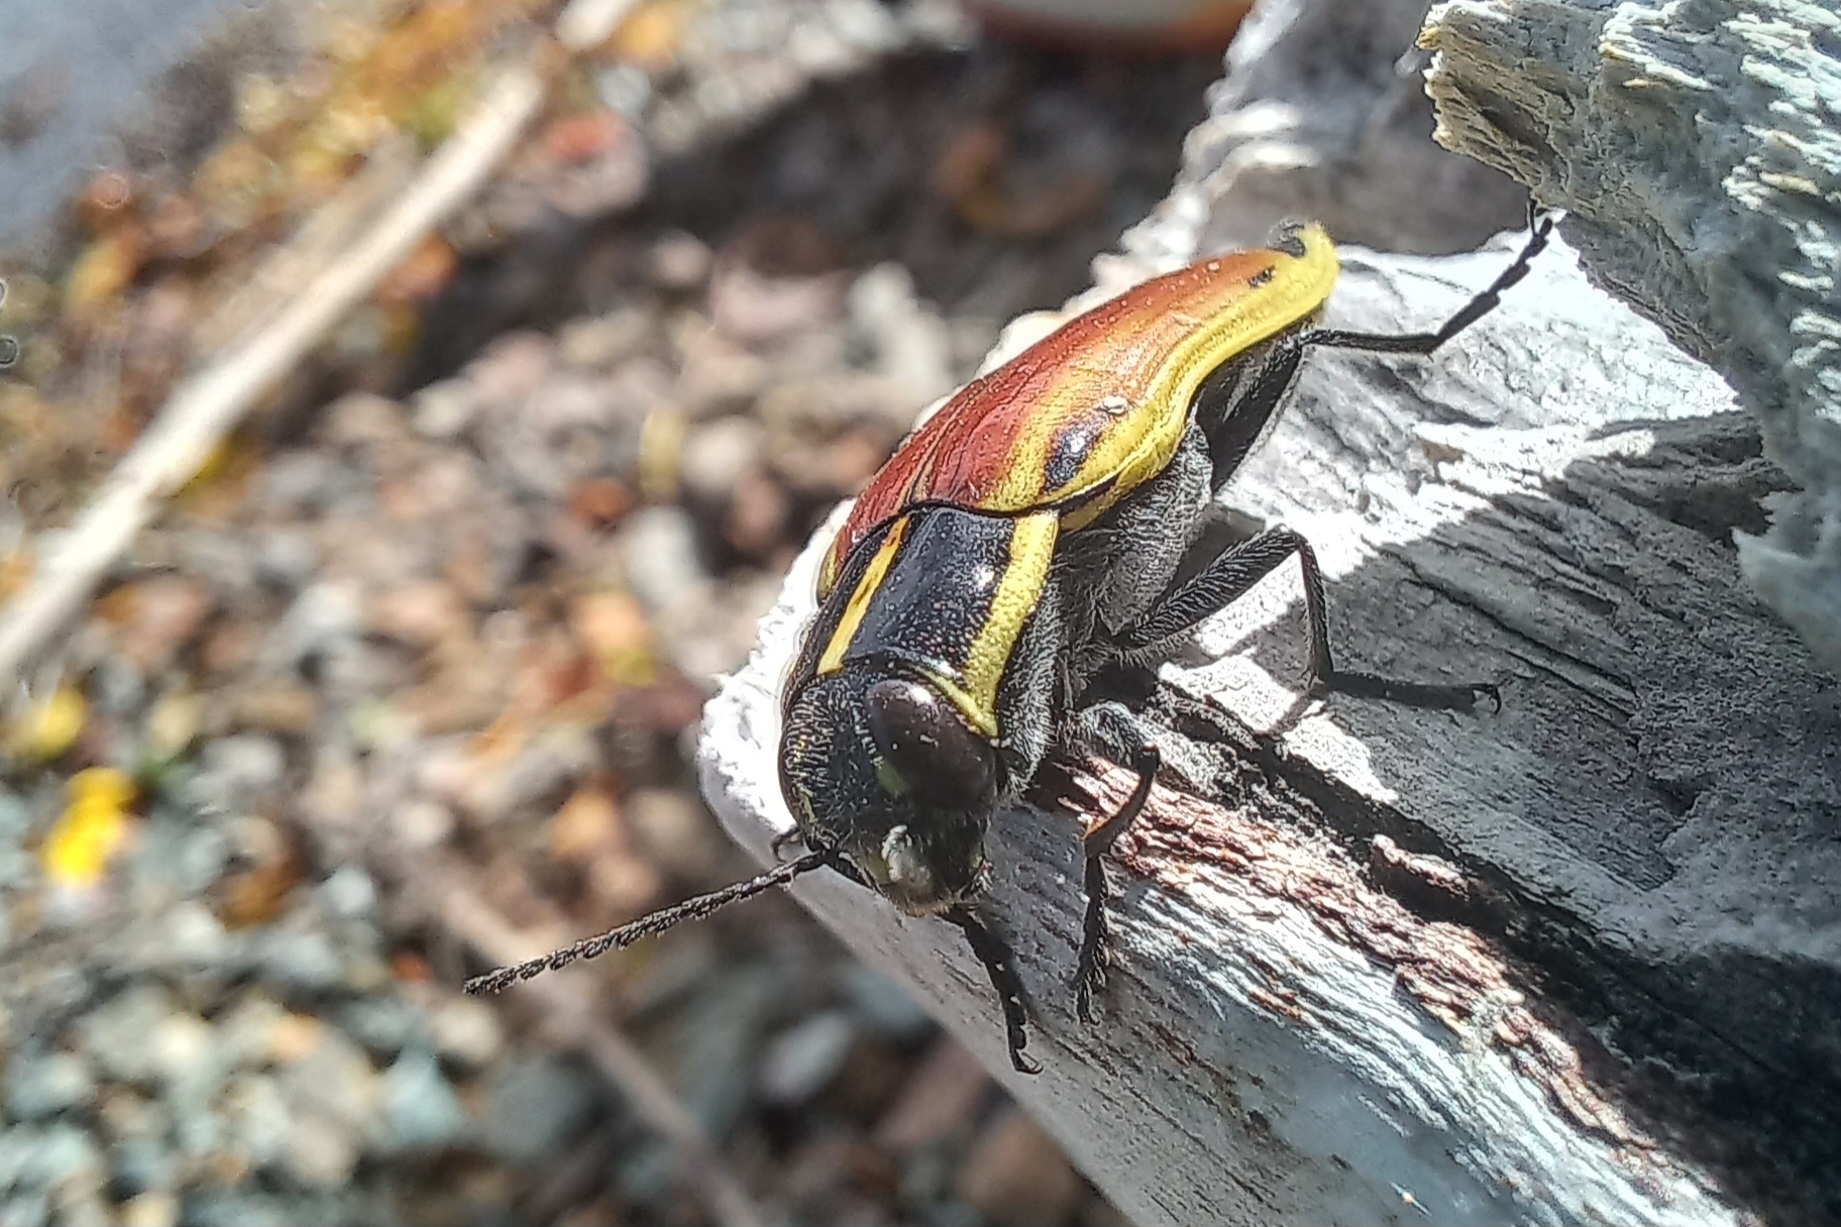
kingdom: Animalia
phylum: Arthropoda
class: Insecta
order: Coleoptera
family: Buprestidae
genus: Epistomentis
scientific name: Epistomentis pictus
